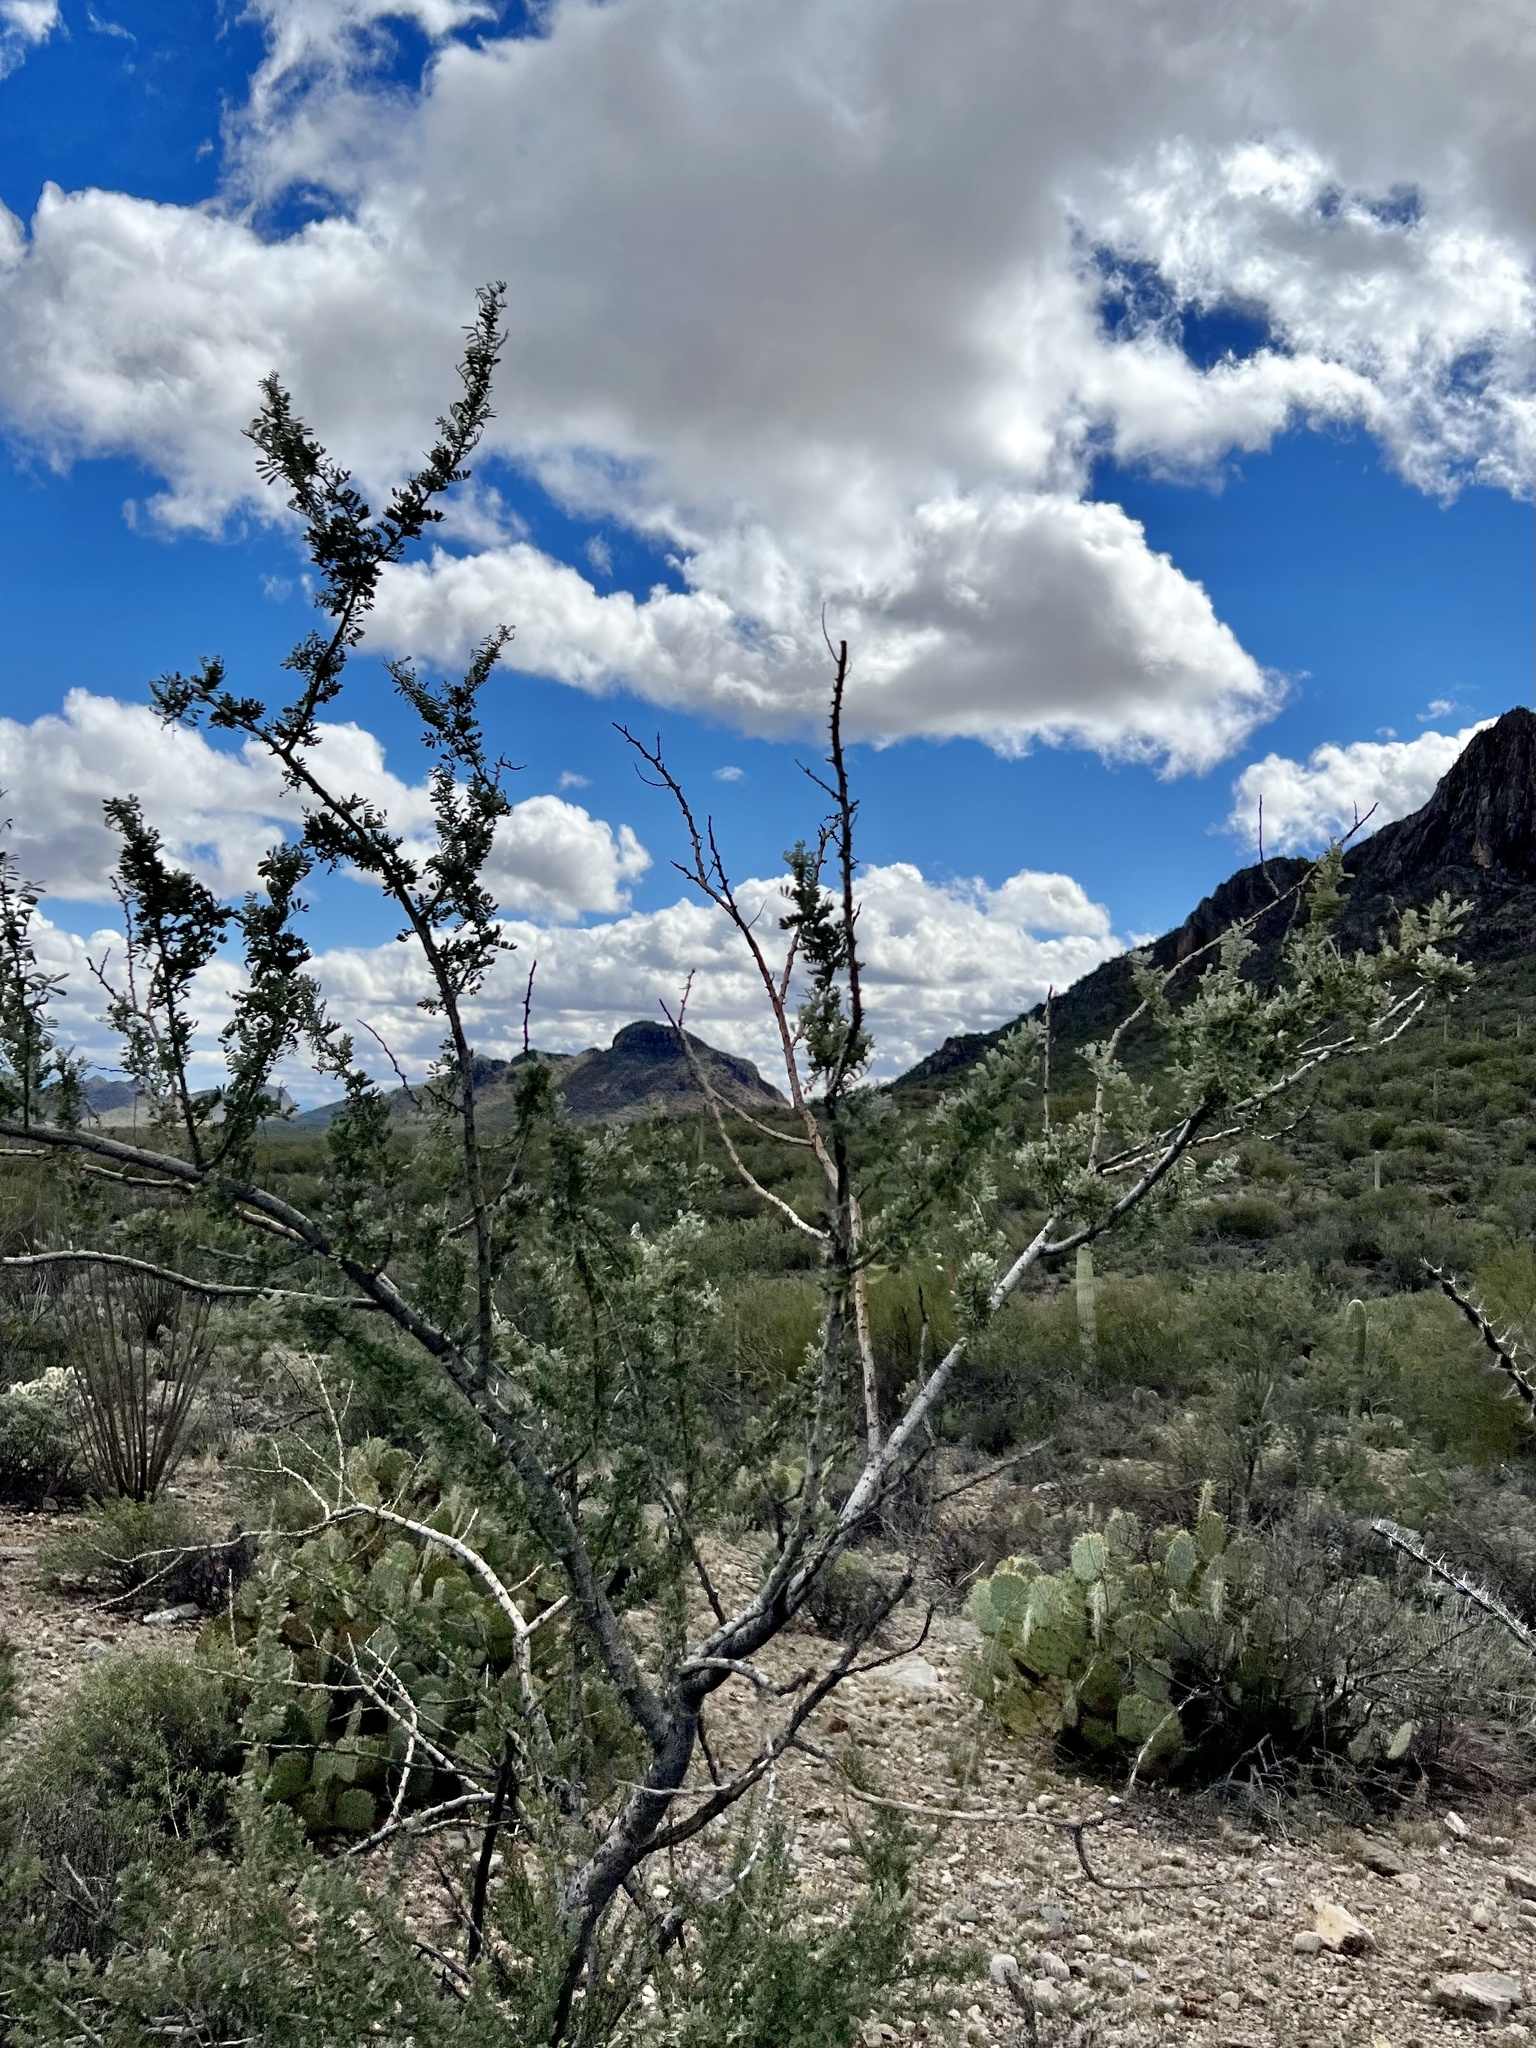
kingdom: Plantae
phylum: Tracheophyta
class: Magnoliopsida
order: Fabales
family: Fabaceae
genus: Olneya
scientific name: Olneya tesota
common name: Desert ironwood
